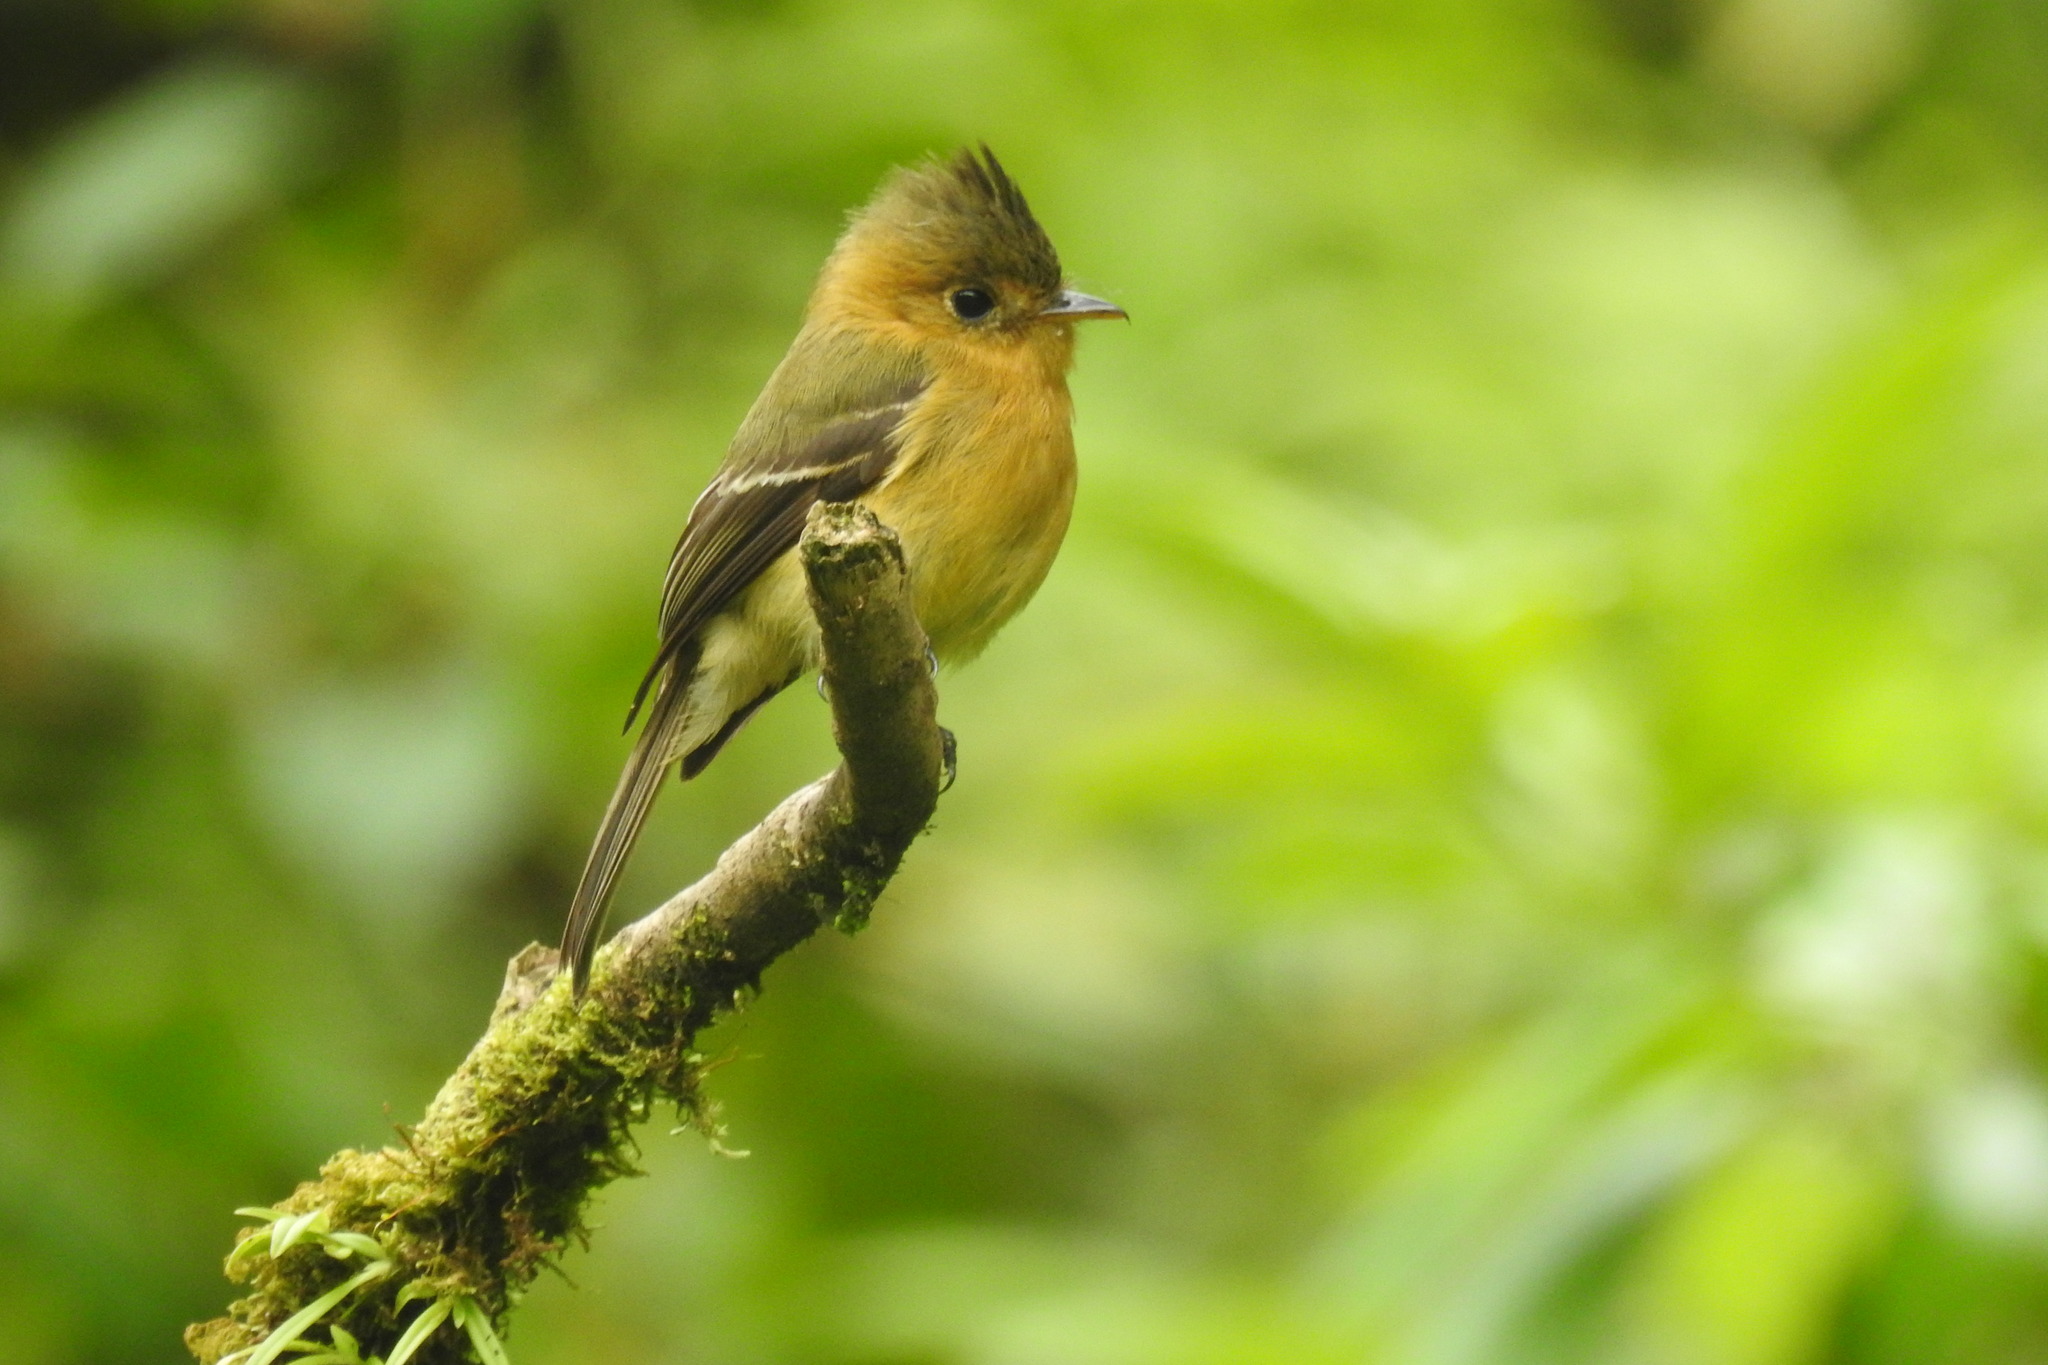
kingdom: Animalia
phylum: Chordata
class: Aves
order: Passeriformes
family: Tyrannidae
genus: Mitrephanes
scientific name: Mitrephanes phaeocercus
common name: Northern tufted flycatcher
